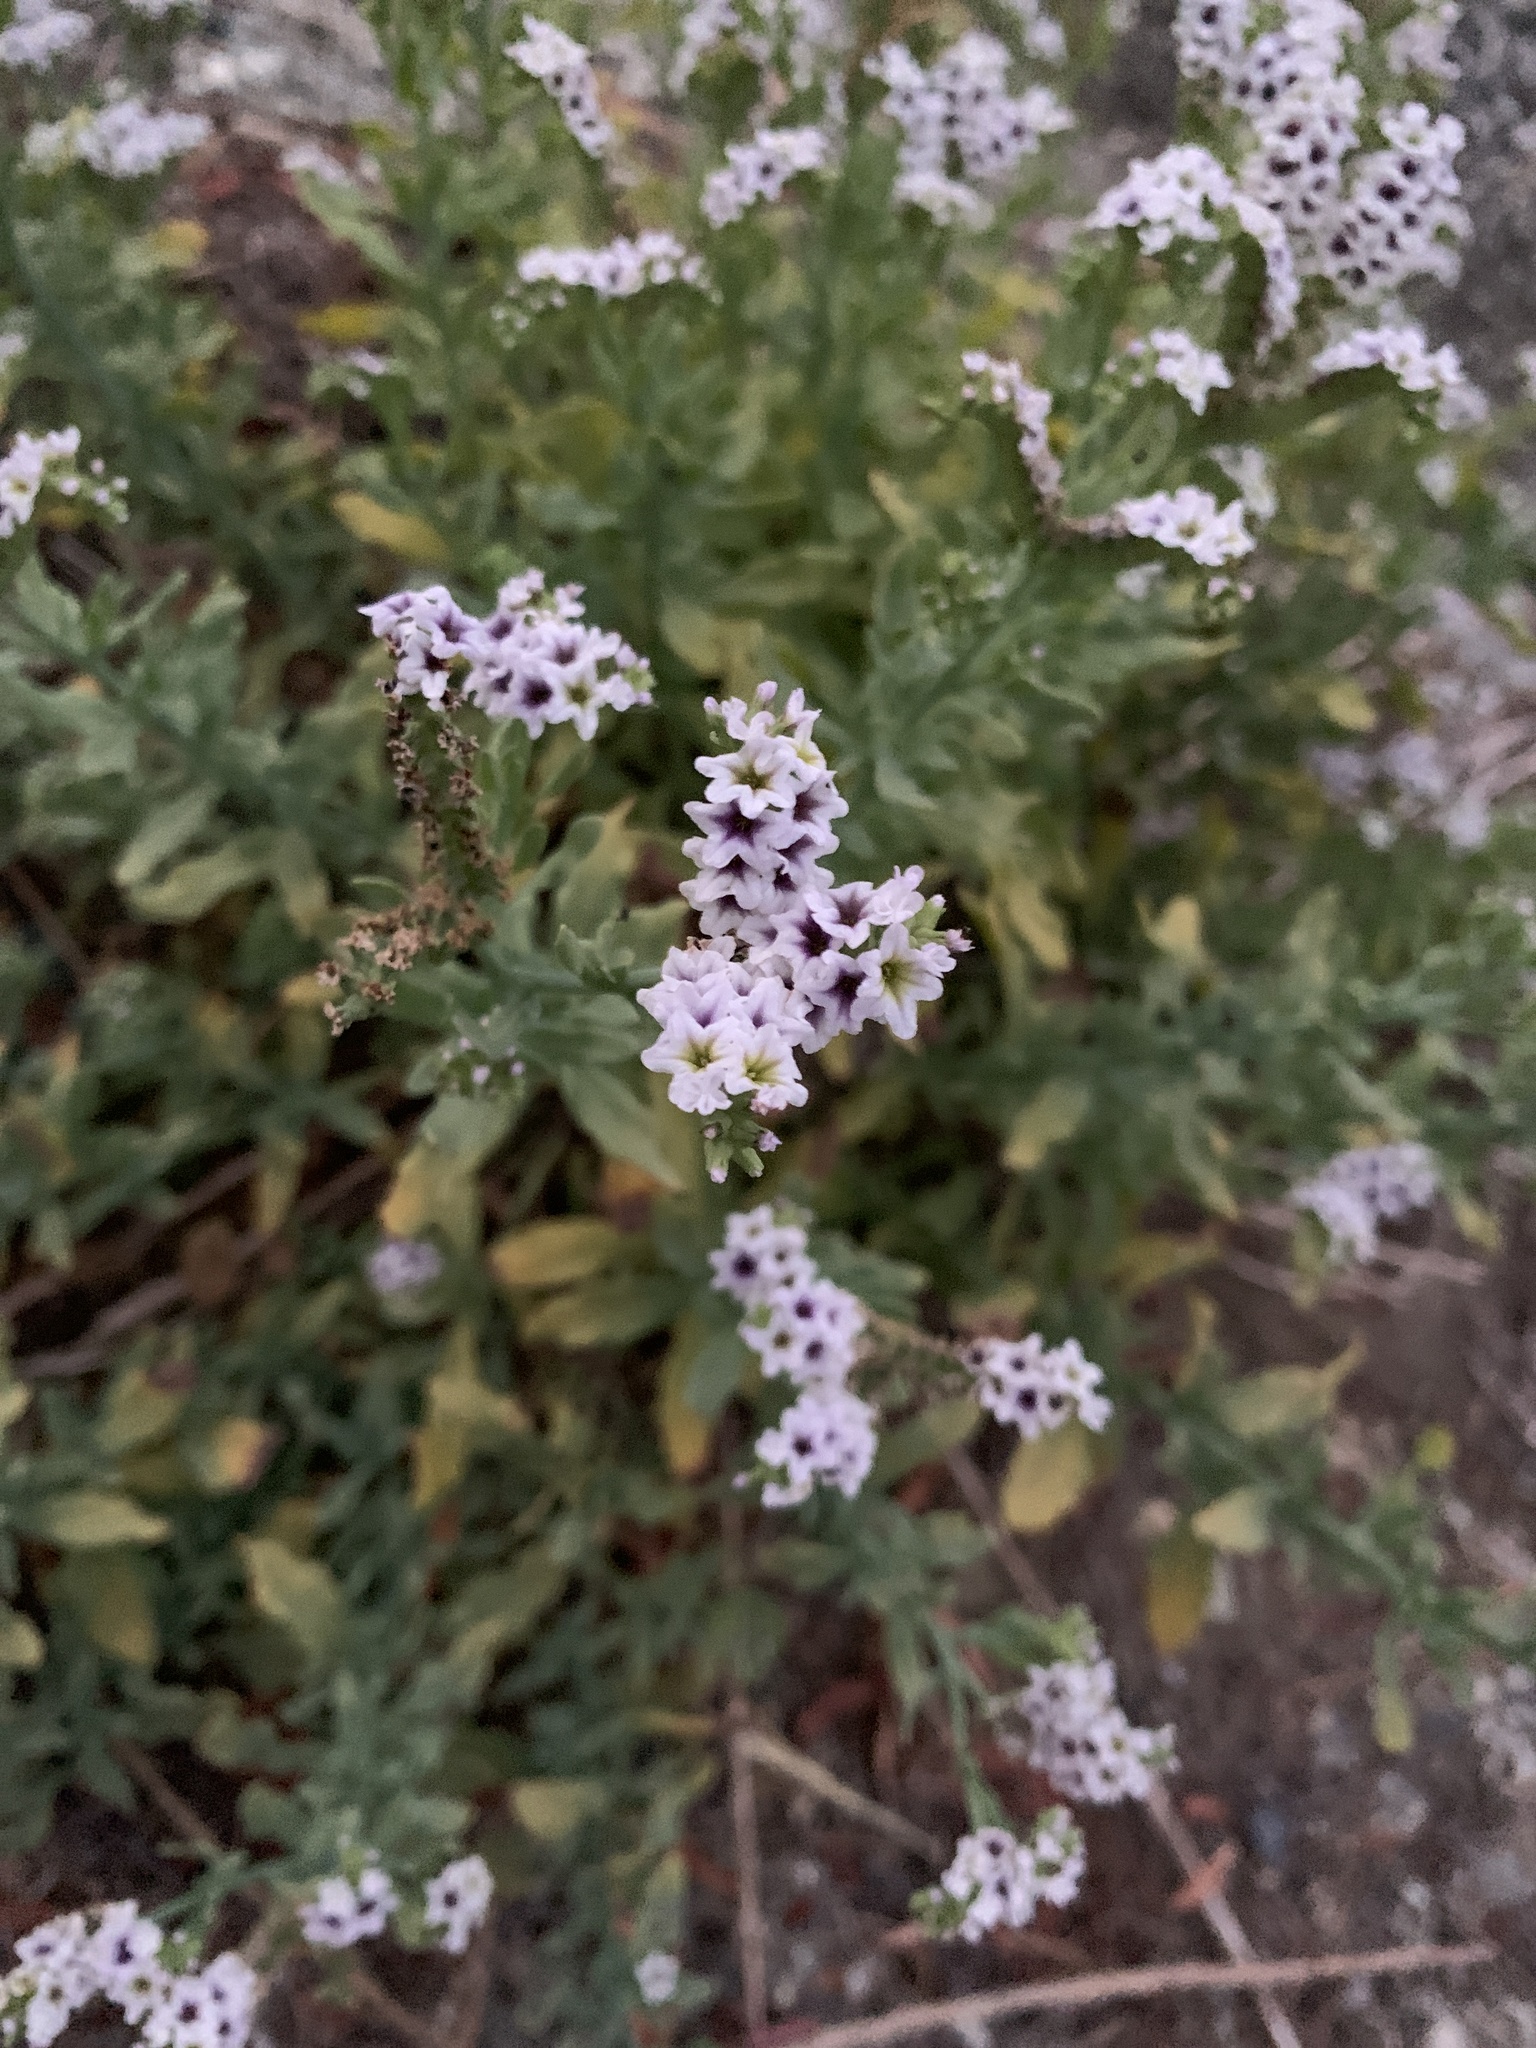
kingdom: Plantae
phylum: Tracheophyta
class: Magnoliopsida
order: Boraginales
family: Heliotropiaceae
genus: Heliotropium
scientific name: Heliotropium curassavicum
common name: Seaside heliotrope
